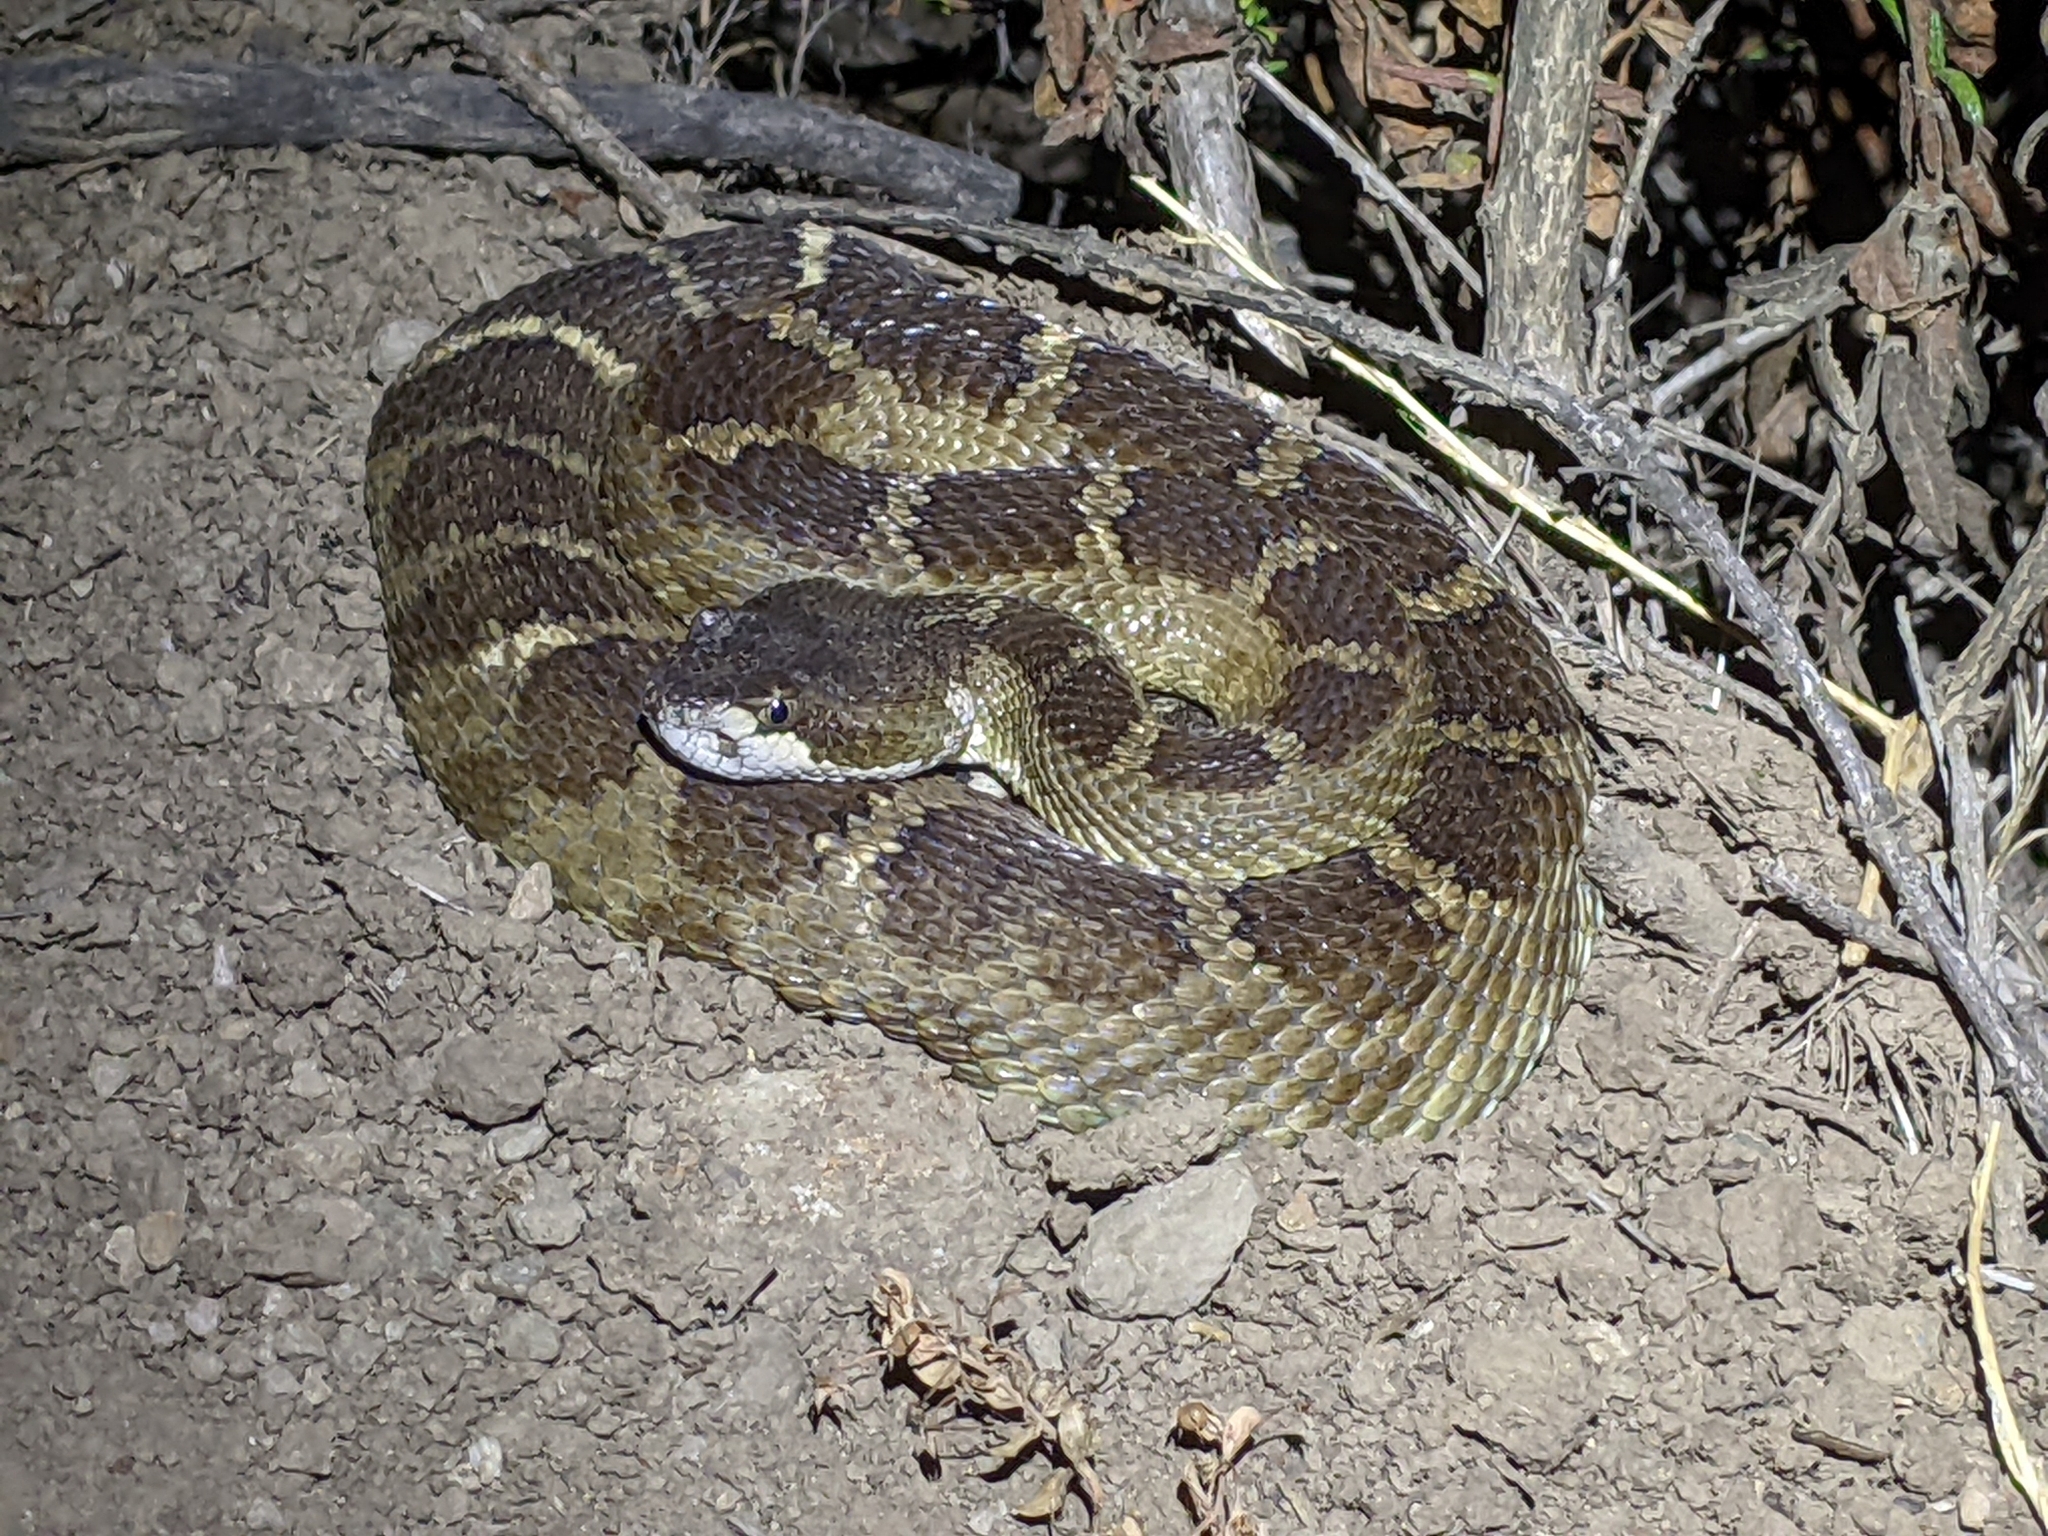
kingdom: Animalia
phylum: Chordata
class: Squamata
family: Viperidae
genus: Crotalus
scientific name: Crotalus oreganus
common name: Abyssus
